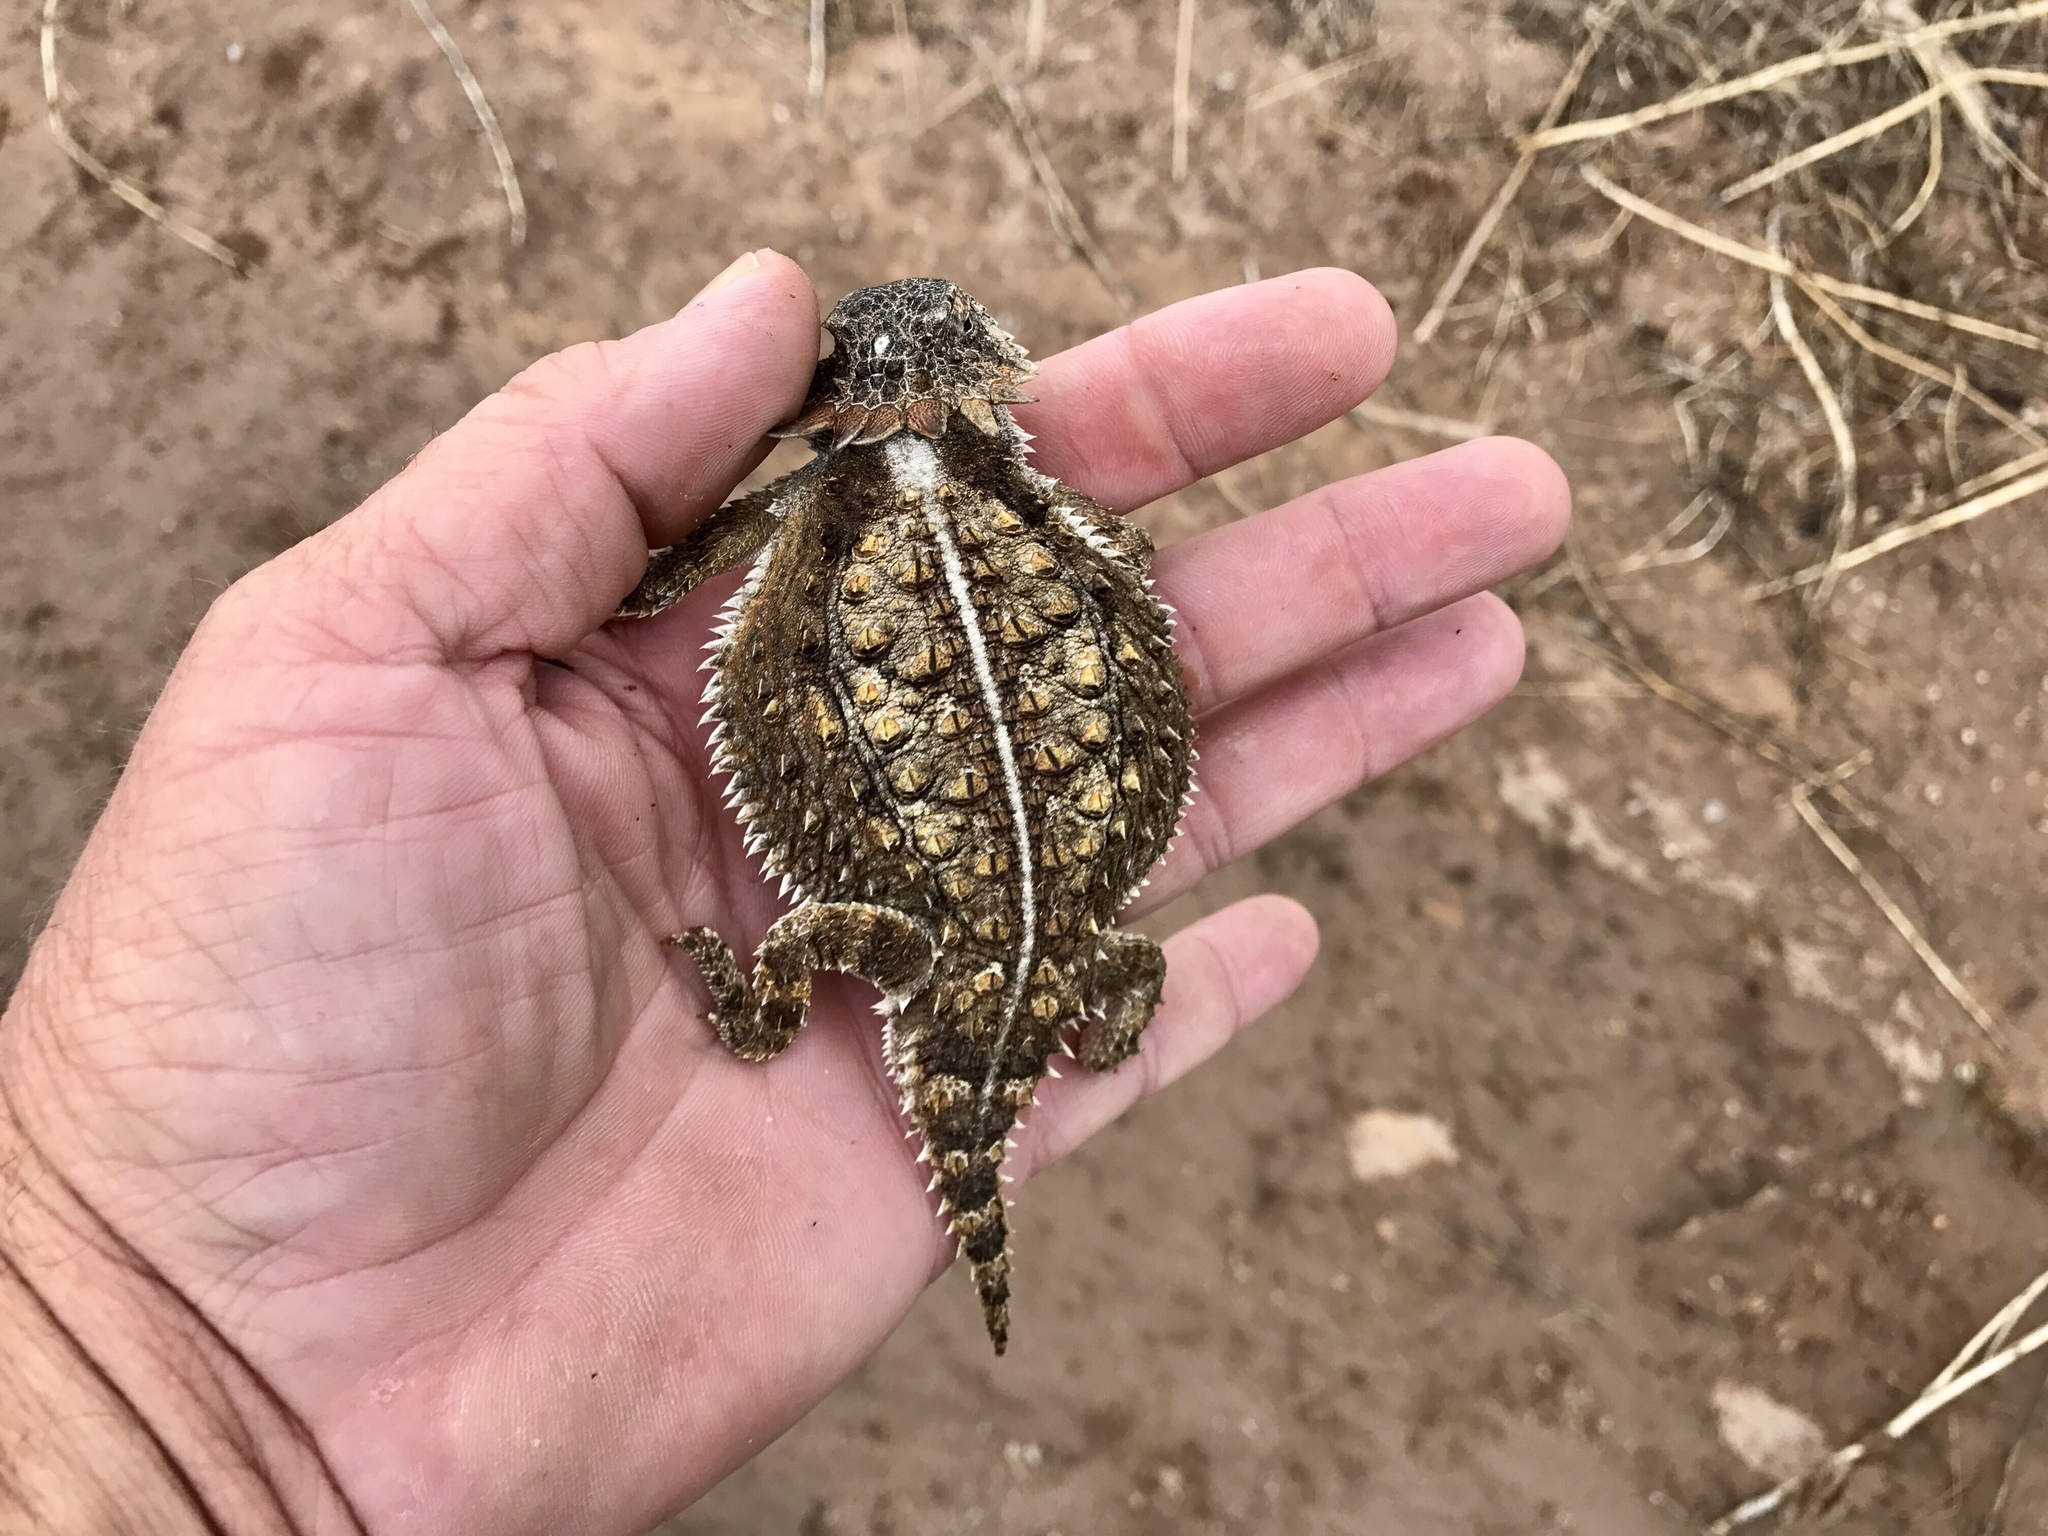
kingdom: Animalia
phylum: Chordata
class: Squamata
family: Phrynosomatidae
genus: Phrynosoma
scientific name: Phrynosoma solare
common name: Regal horned lizard
